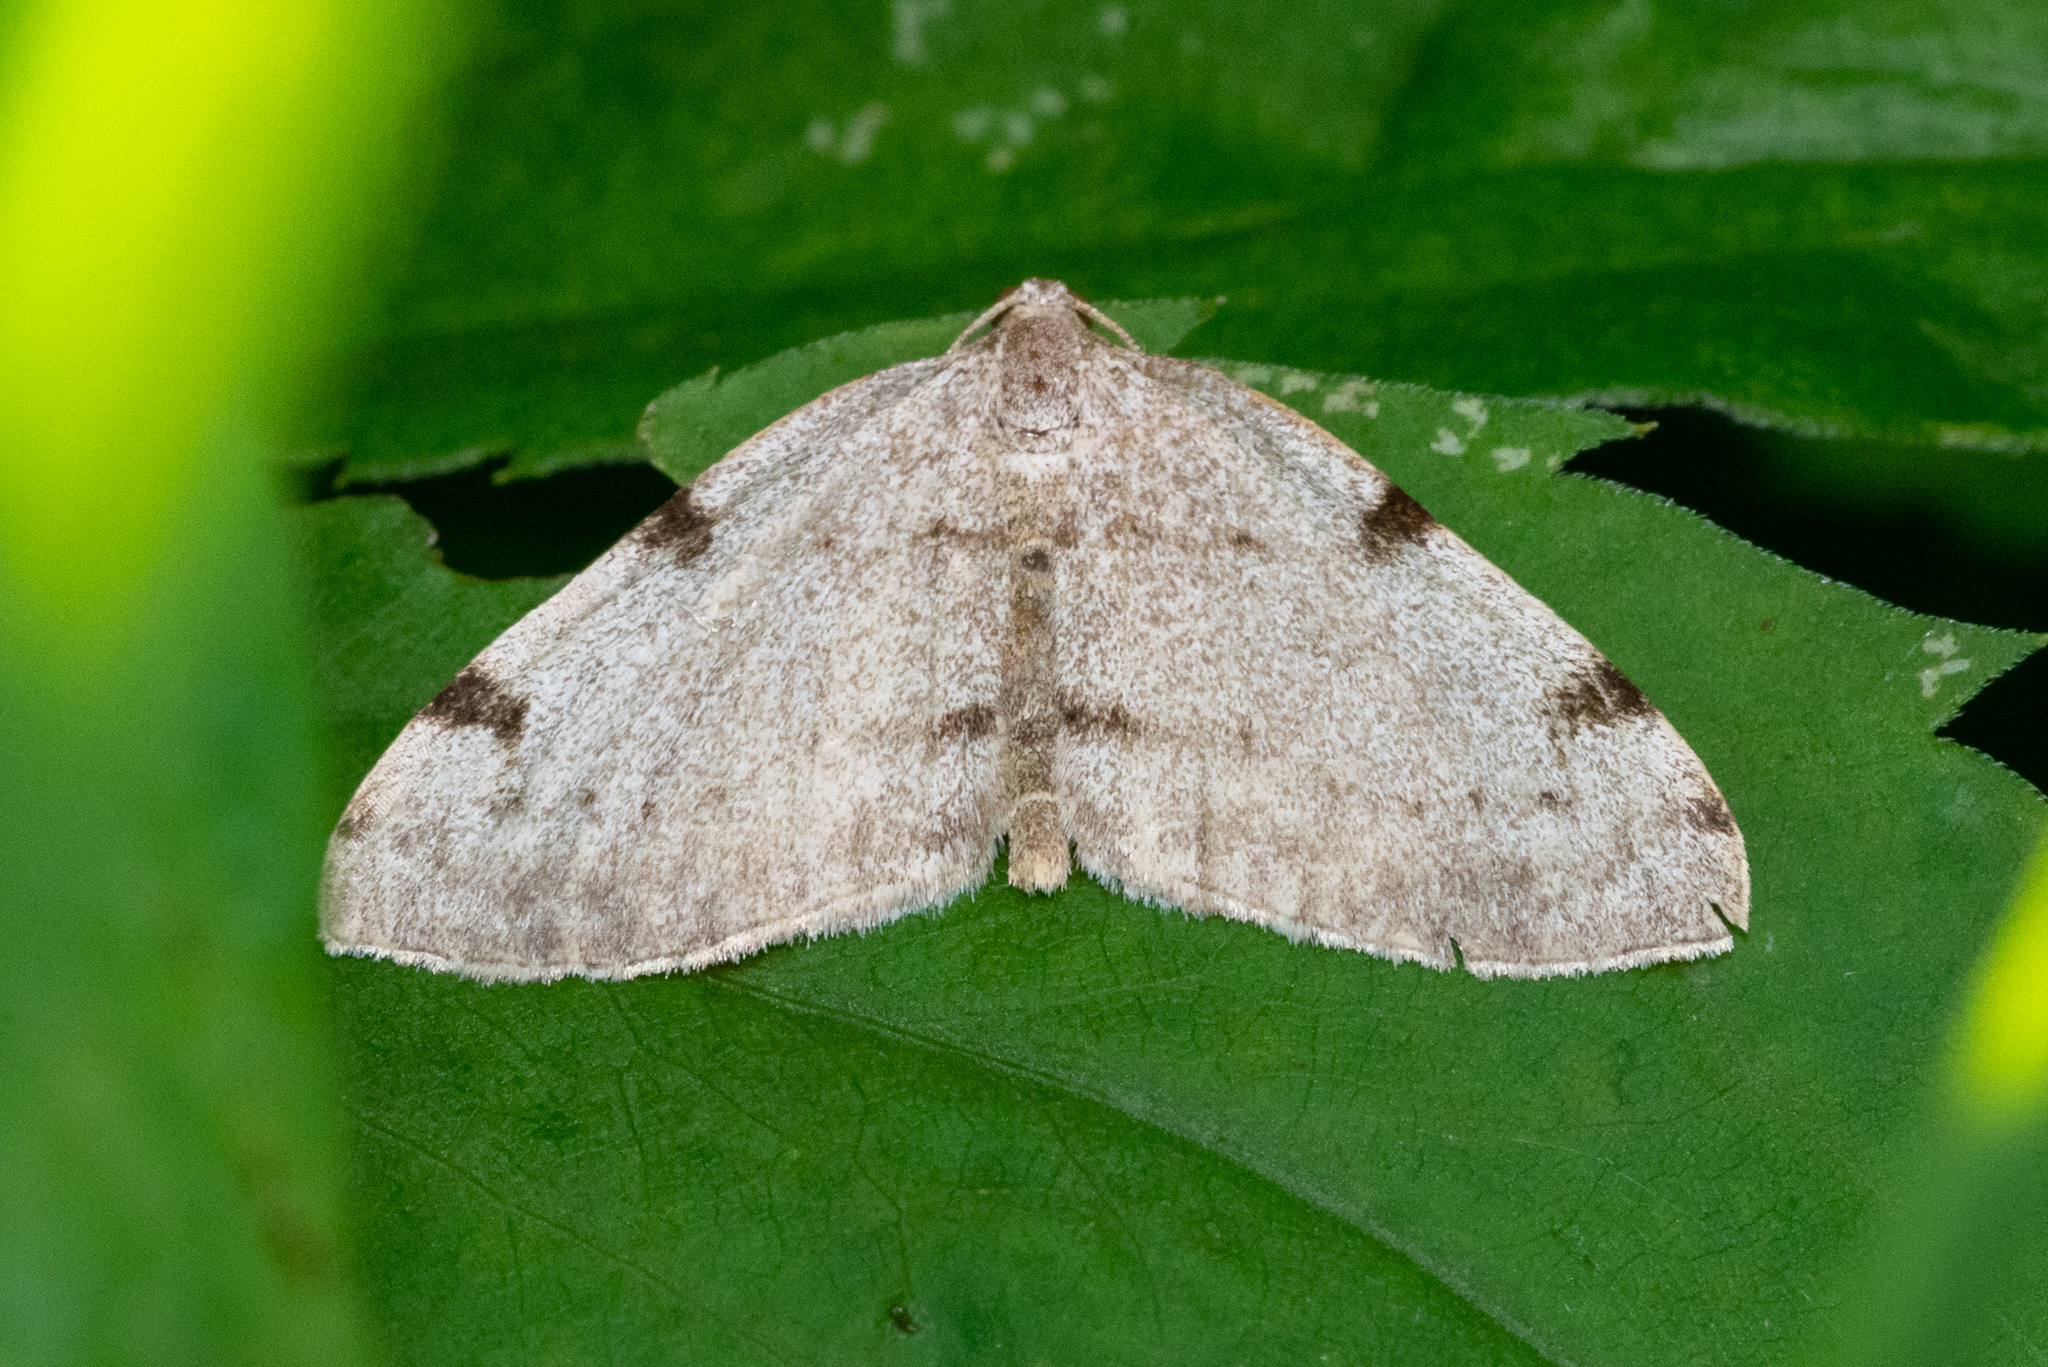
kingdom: Animalia
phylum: Arthropoda
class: Insecta
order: Lepidoptera
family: Geometridae
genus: Heterophleps
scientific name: Heterophleps refusaria
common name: Three-patched bigwing
